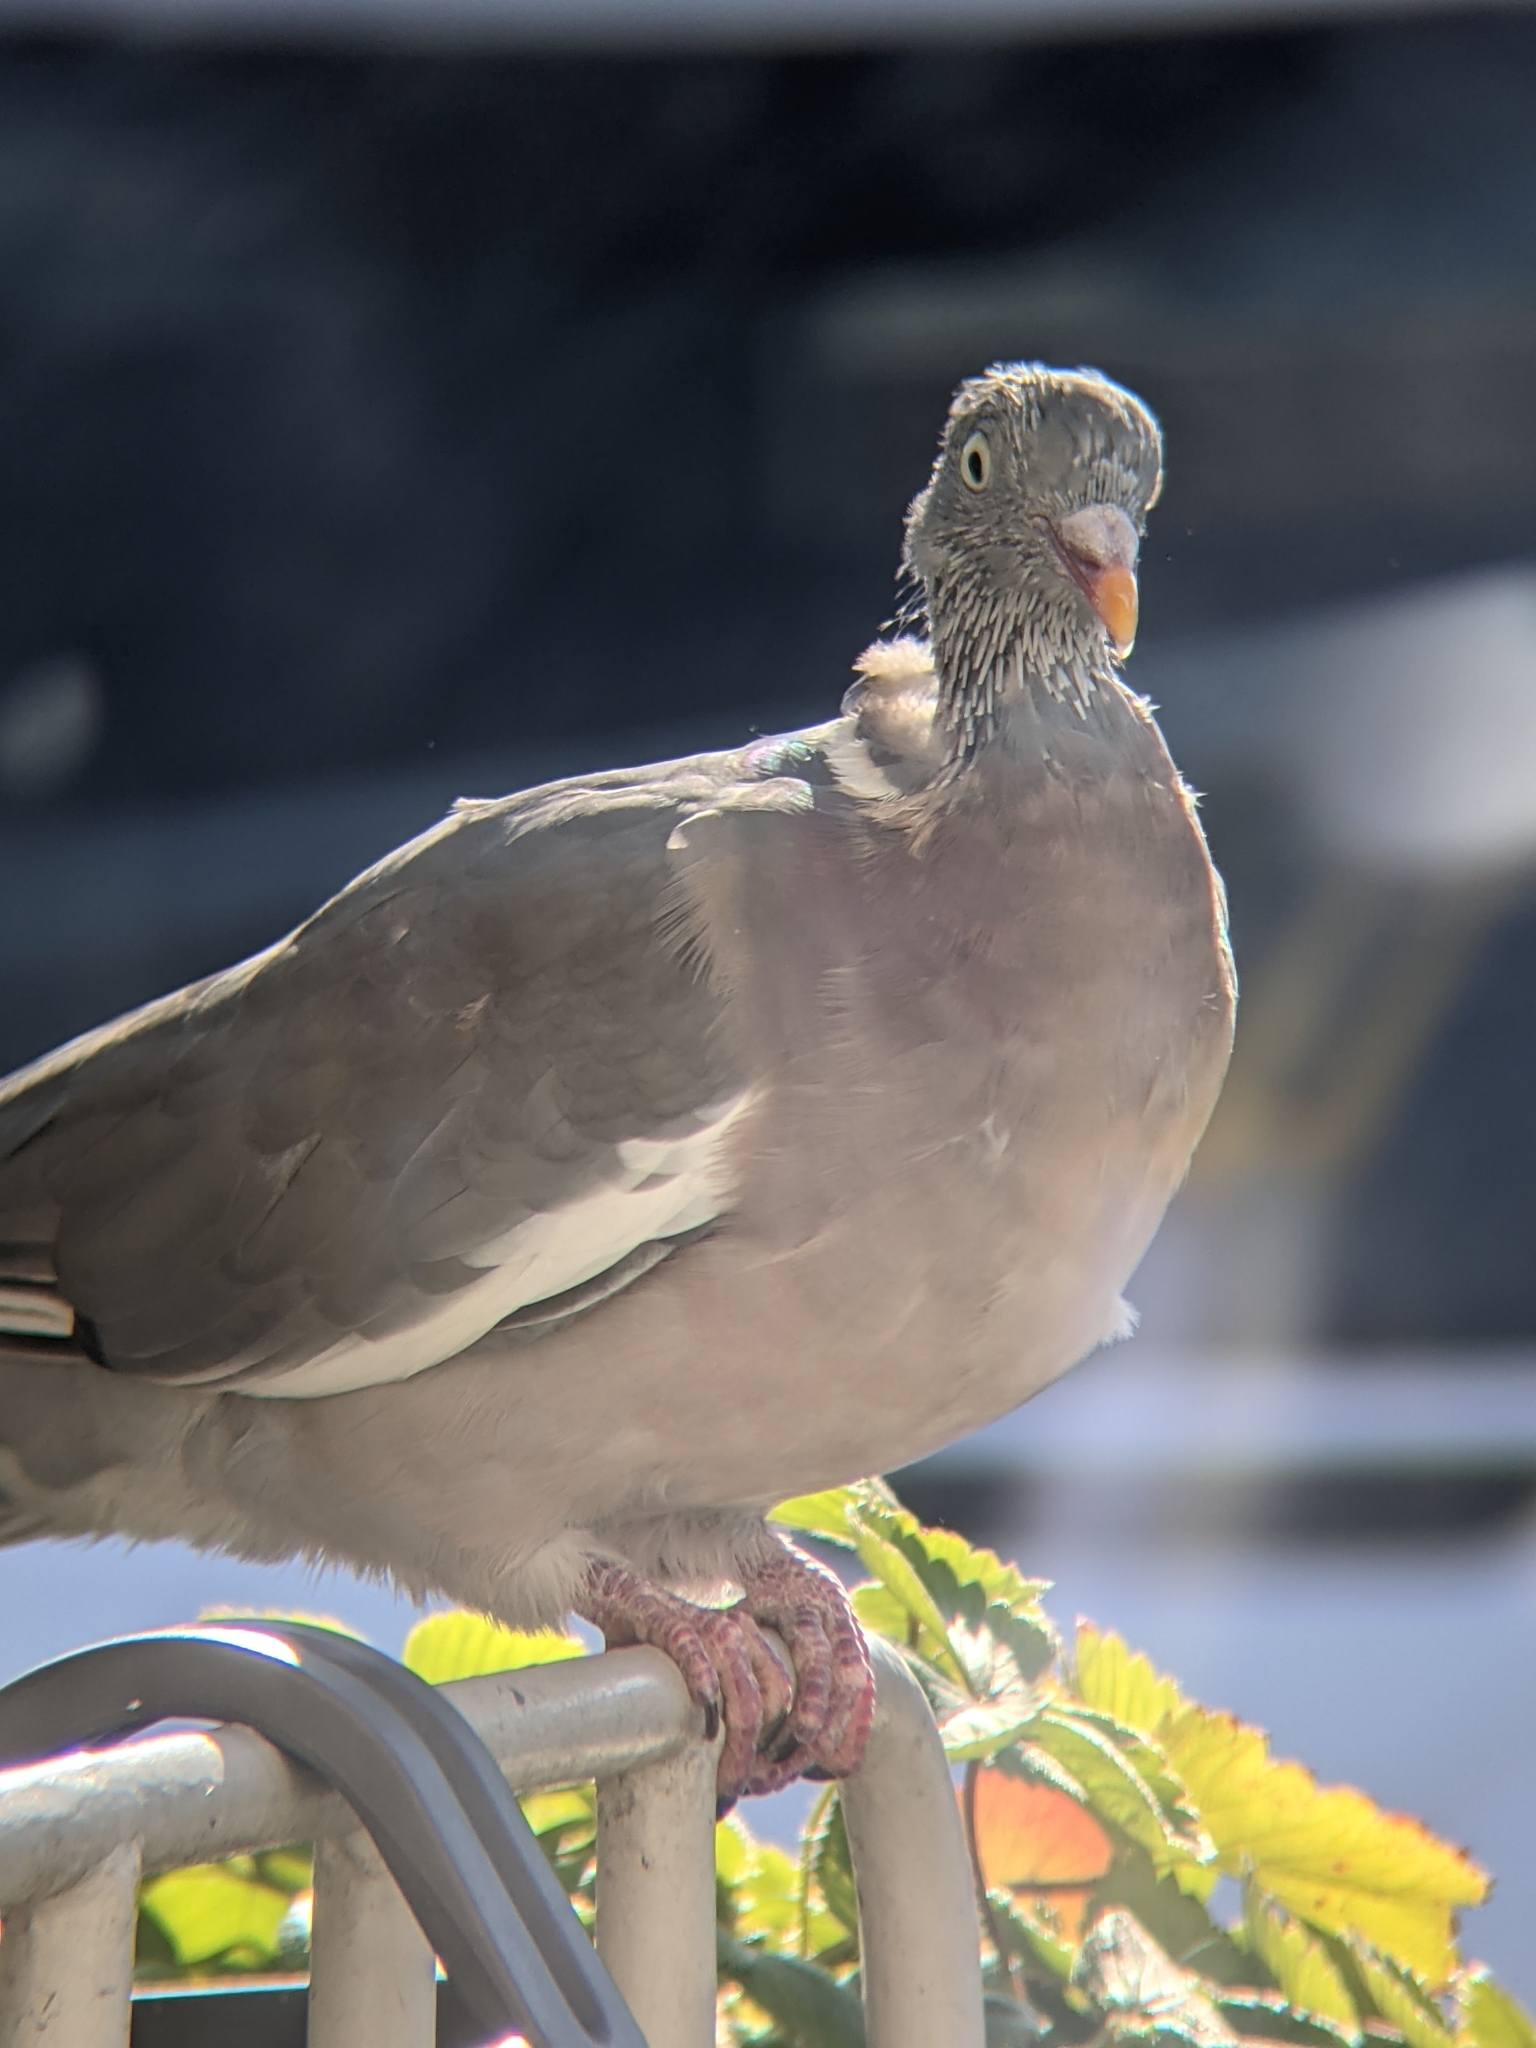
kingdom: Animalia
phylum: Chordata
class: Aves
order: Columbiformes
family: Columbidae
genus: Columba
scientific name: Columba palumbus
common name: Common wood pigeon
